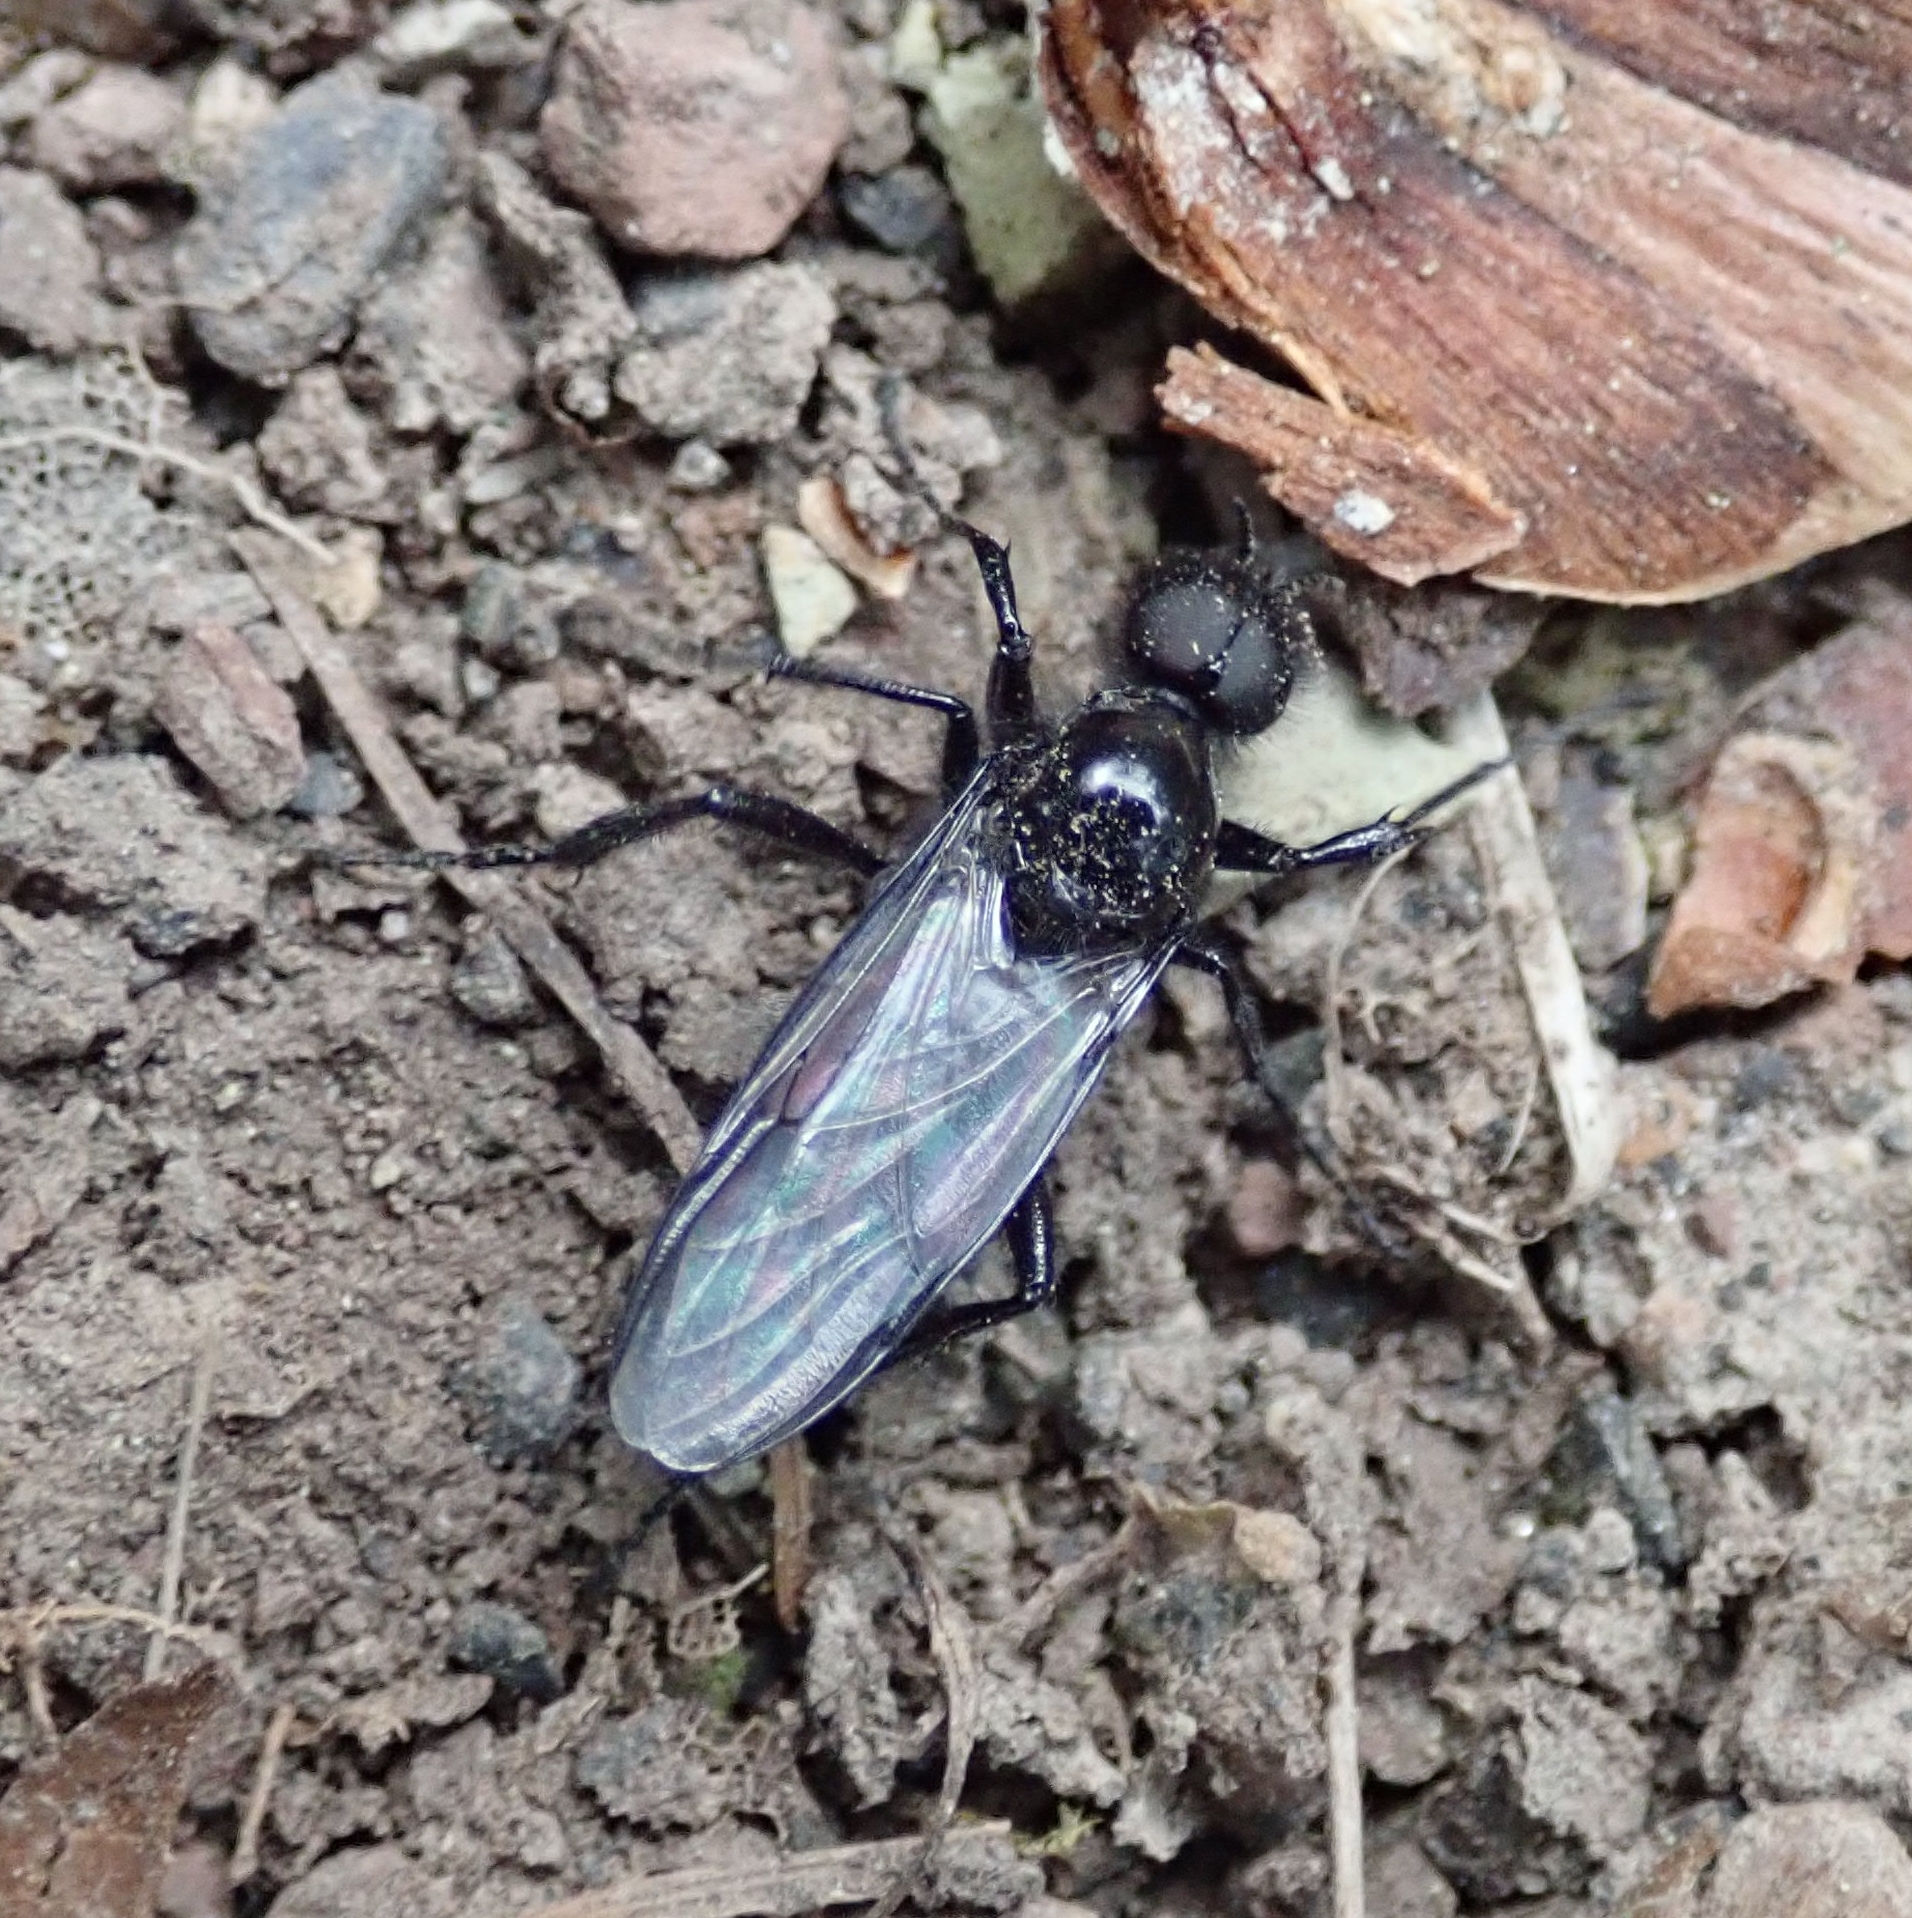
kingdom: Animalia
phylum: Arthropoda
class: Insecta
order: Diptera
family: Bibionidae
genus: Bibio
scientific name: Bibio marci
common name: St marks fly
